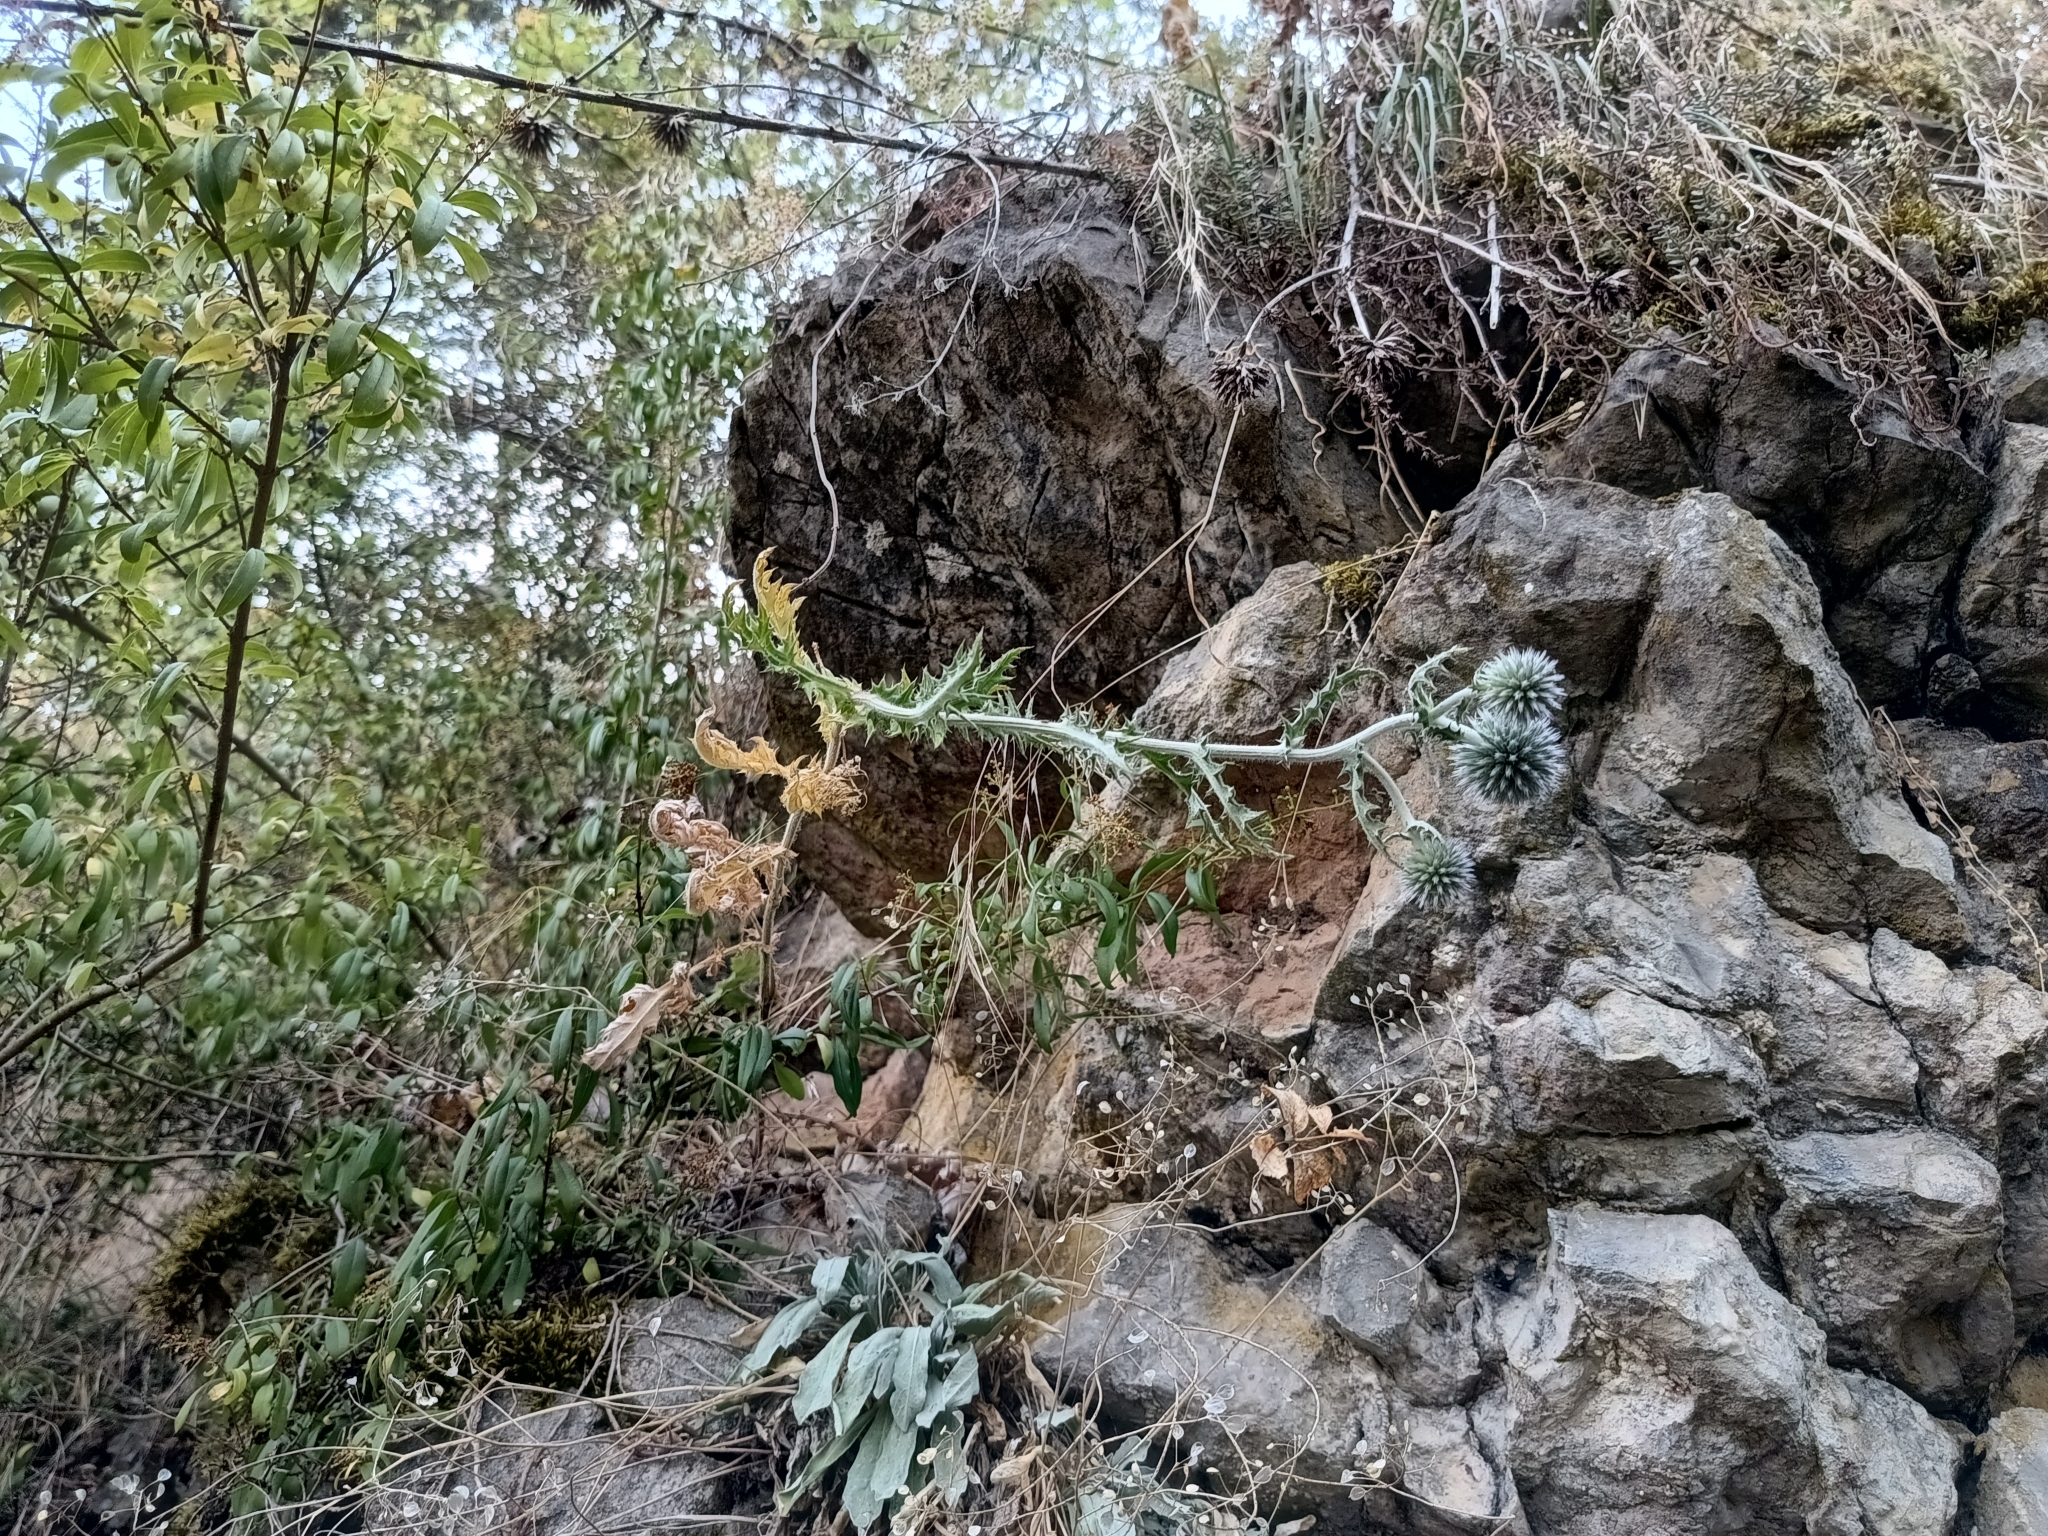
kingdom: Plantae
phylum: Tracheophyta
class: Magnoliopsida
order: Asterales
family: Asteraceae
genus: Echinops
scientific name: Echinops sphaerocephalus
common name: Glandular globe-thistle
